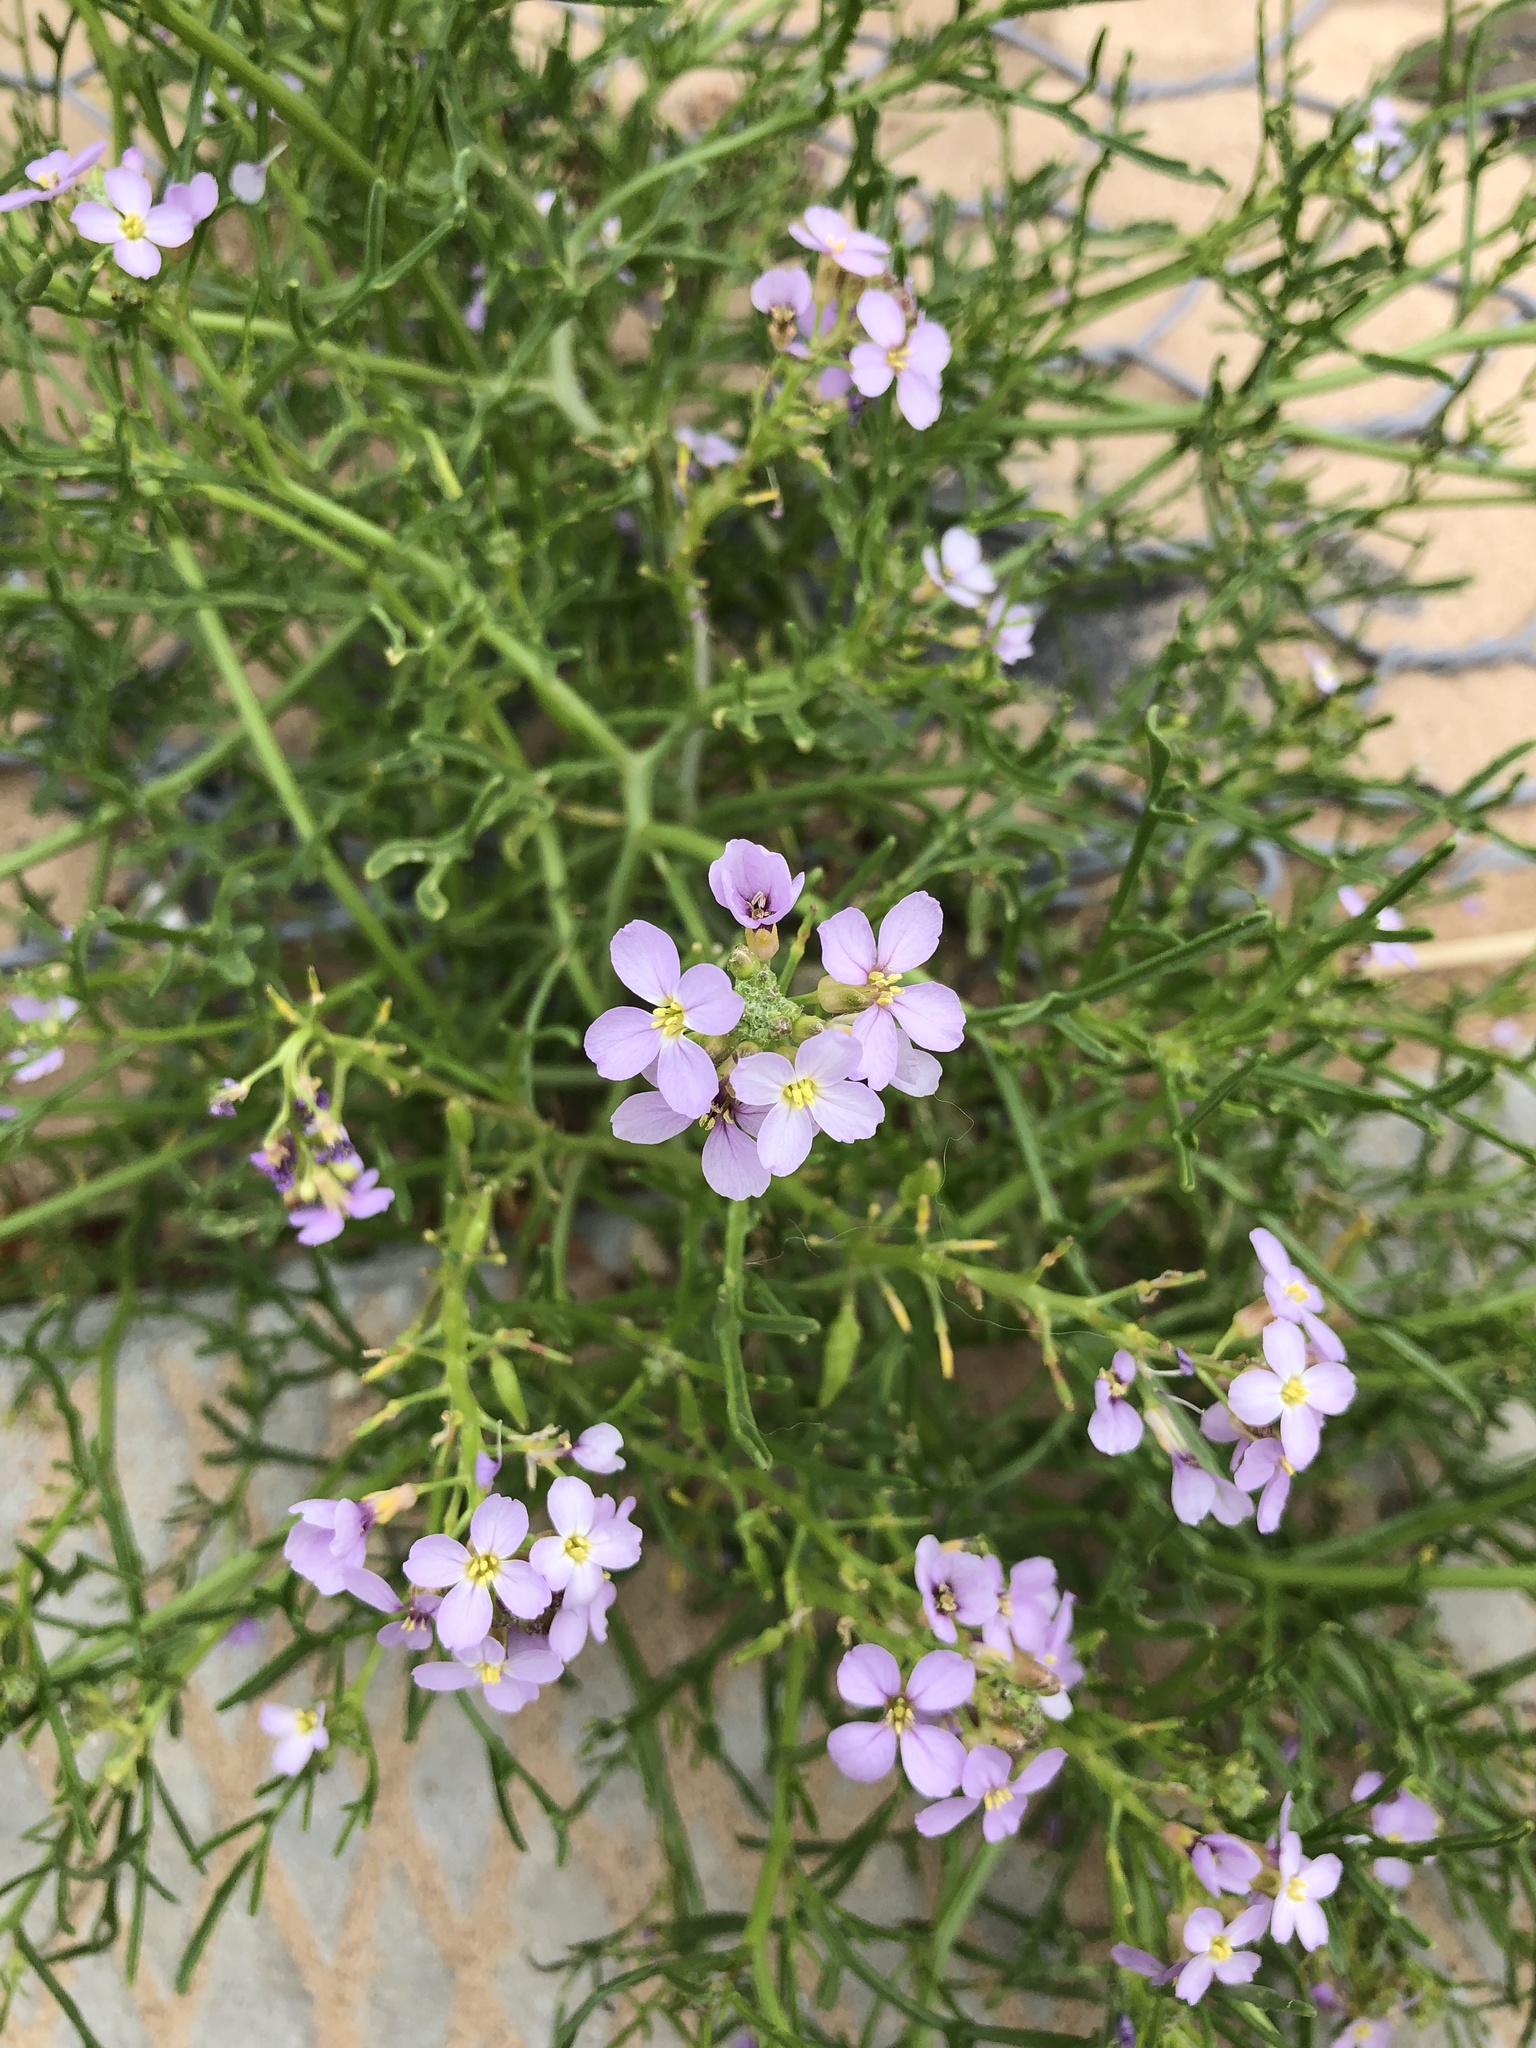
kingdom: Plantae
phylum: Tracheophyta
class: Magnoliopsida
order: Brassicales
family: Brassicaceae
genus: Cakile
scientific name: Cakile maritima
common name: Sea rocket
